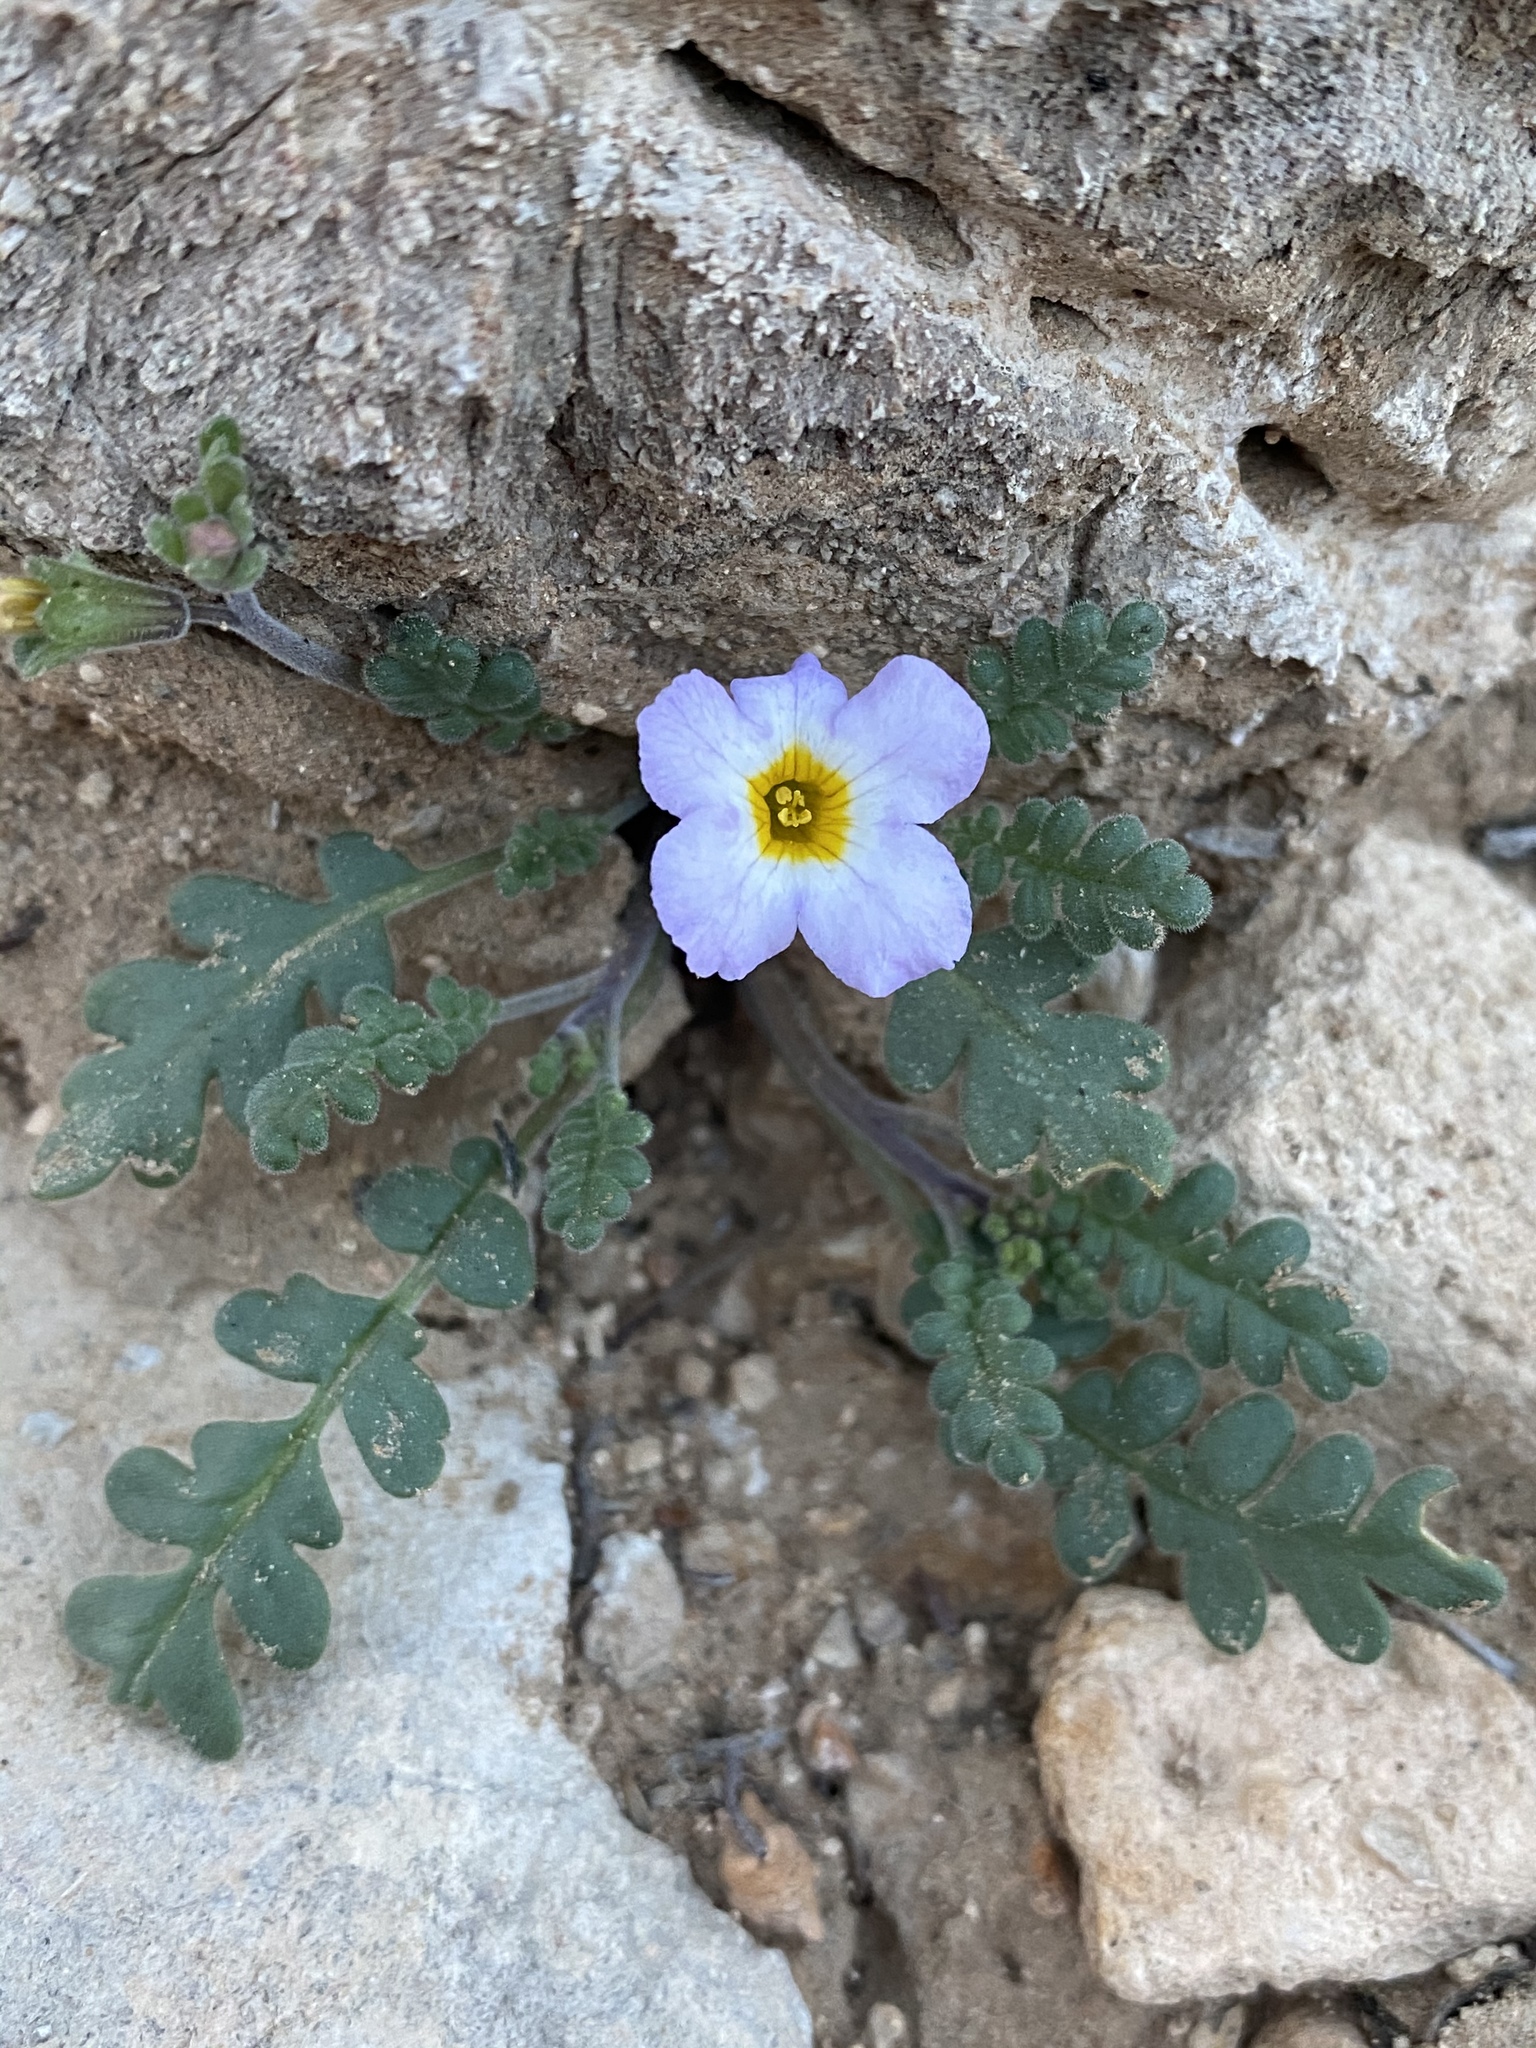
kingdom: Plantae
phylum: Tracheophyta
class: Magnoliopsida
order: Boraginales
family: Hydrophyllaceae
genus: Phacelia
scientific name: Phacelia fremontii
